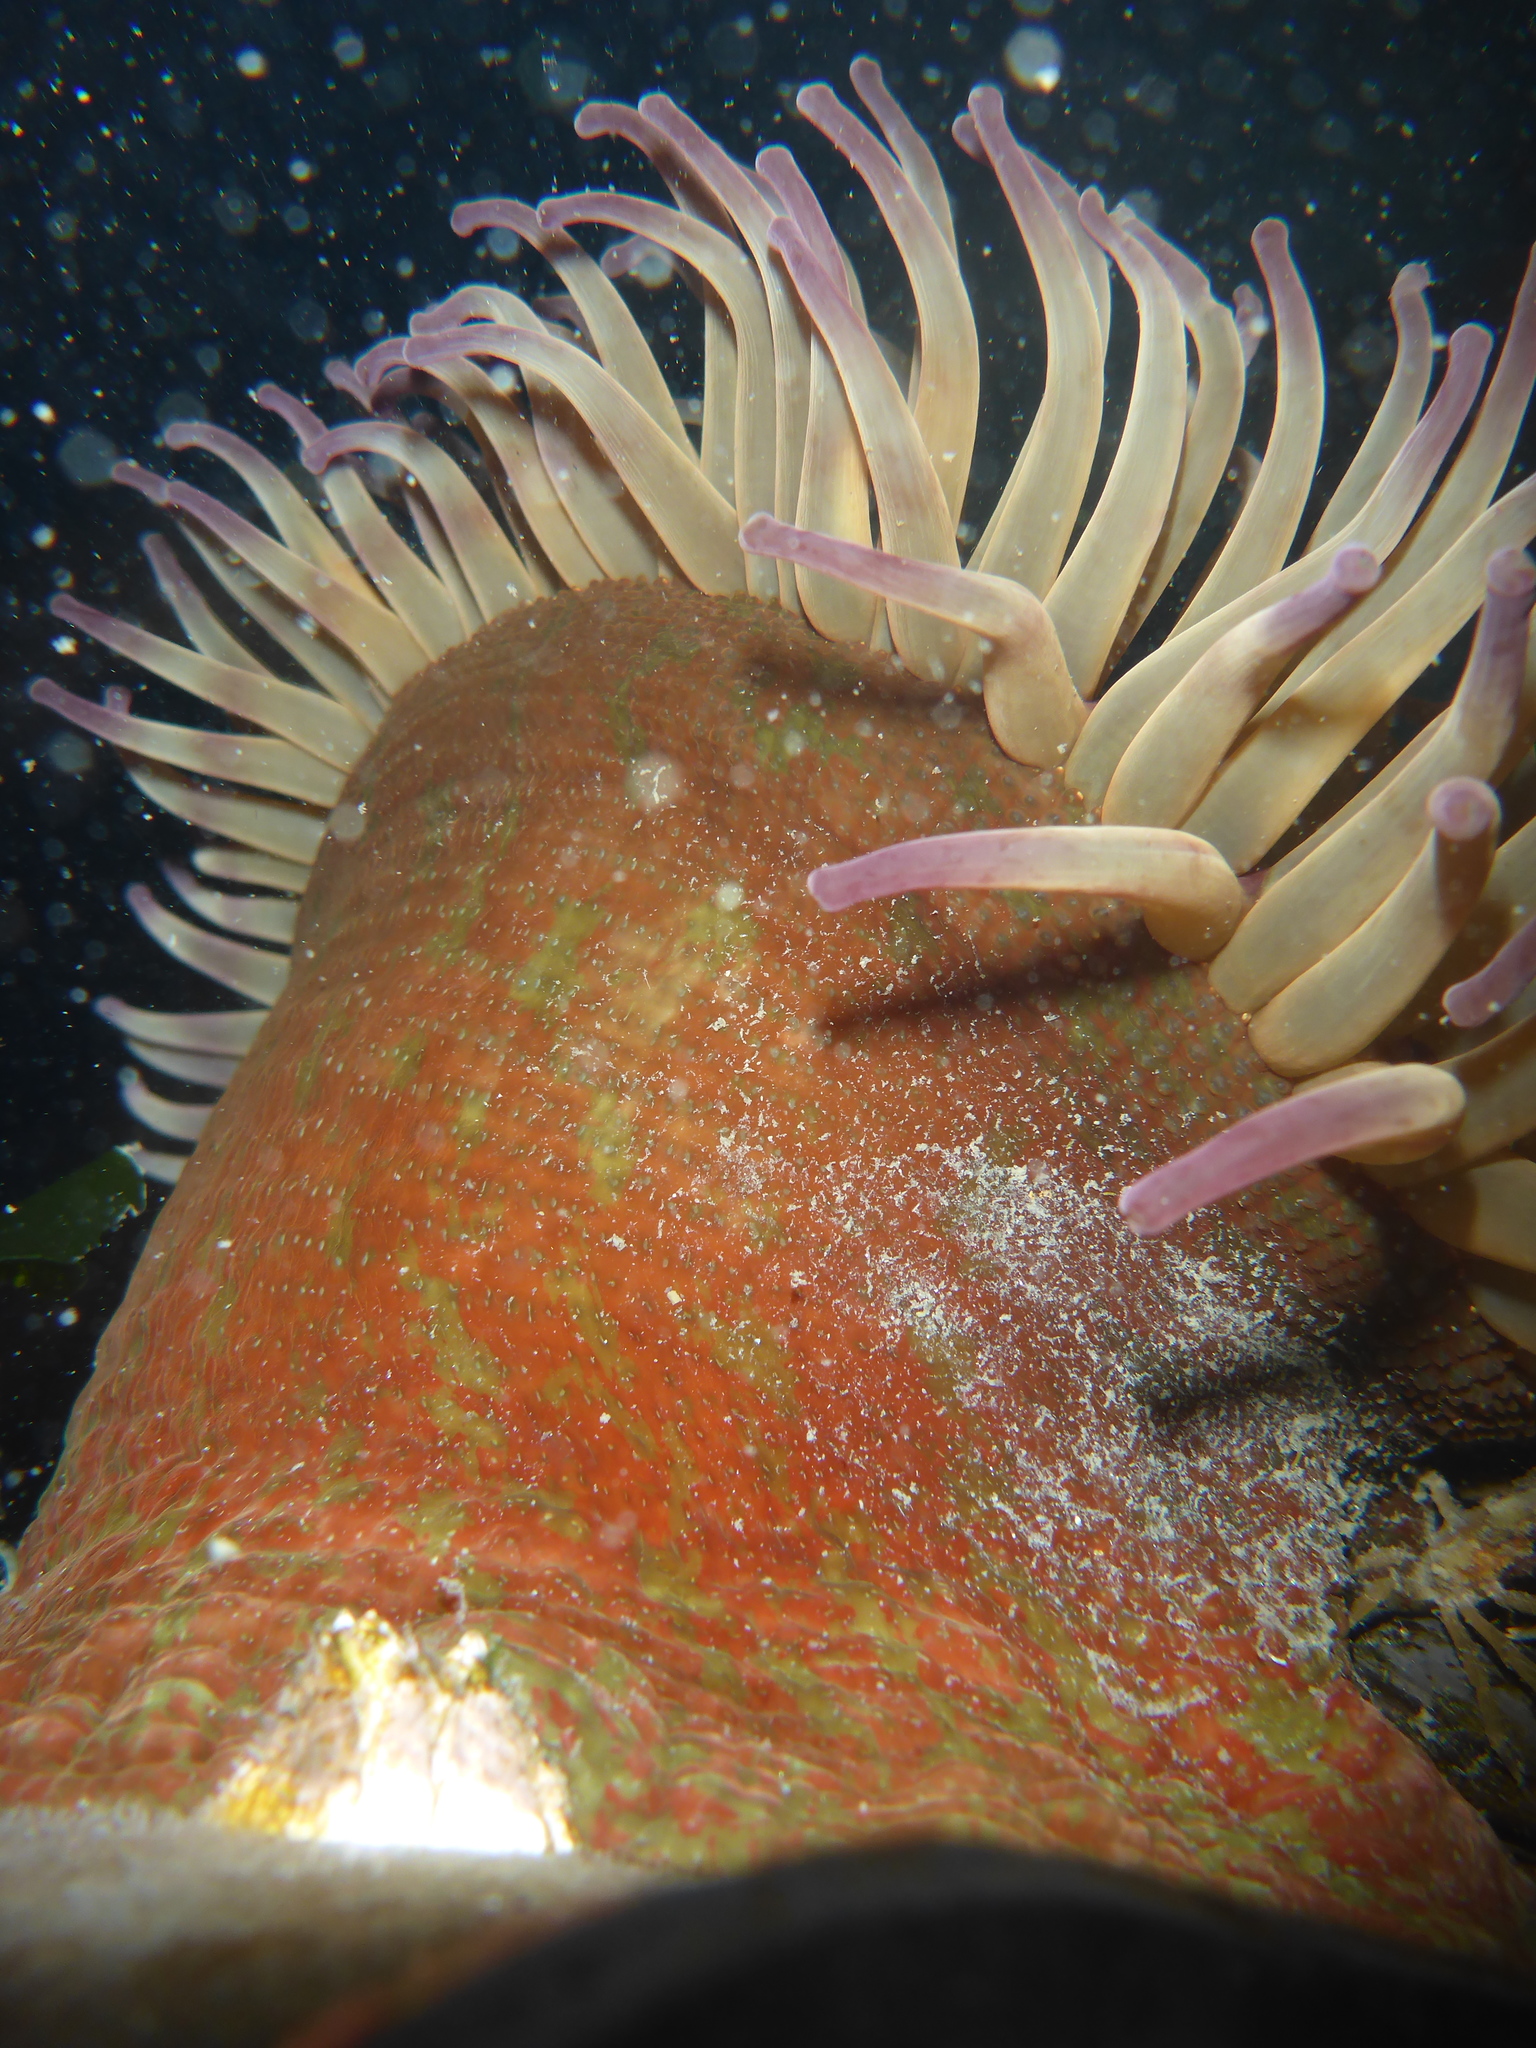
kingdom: Animalia
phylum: Cnidaria
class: Anthozoa
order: Actiniaria
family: Actiniidae
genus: Urticina
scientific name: Urticina grebelnyi
